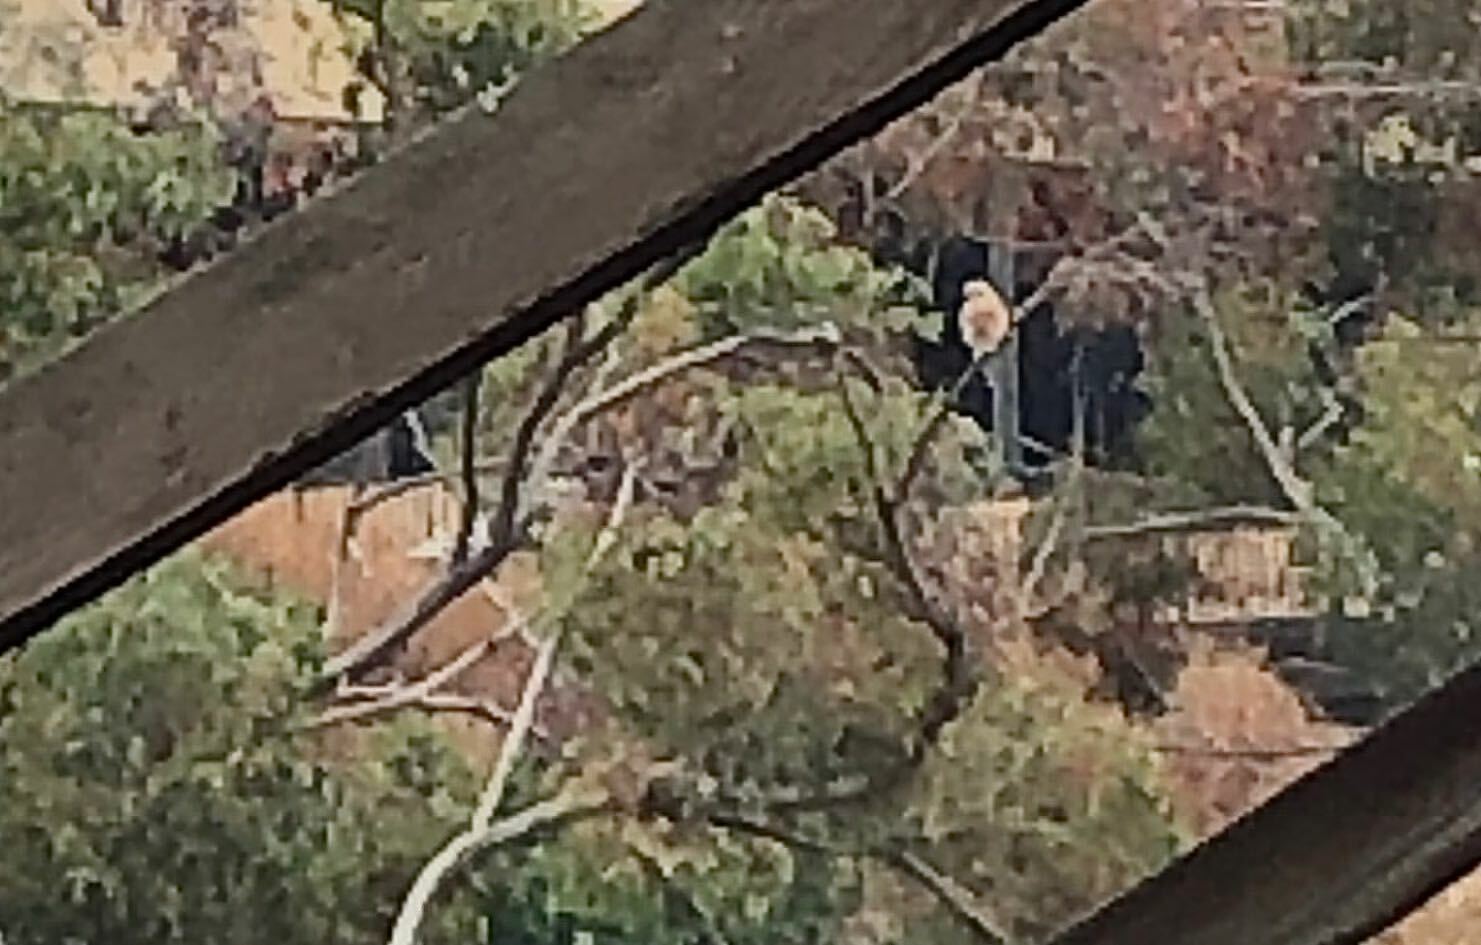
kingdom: Animalia
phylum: Chordata
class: Aves
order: Accipitriformes
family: Accipitridae
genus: Buteo
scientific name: Buteo lineatus
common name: Red-shouldered hawk
